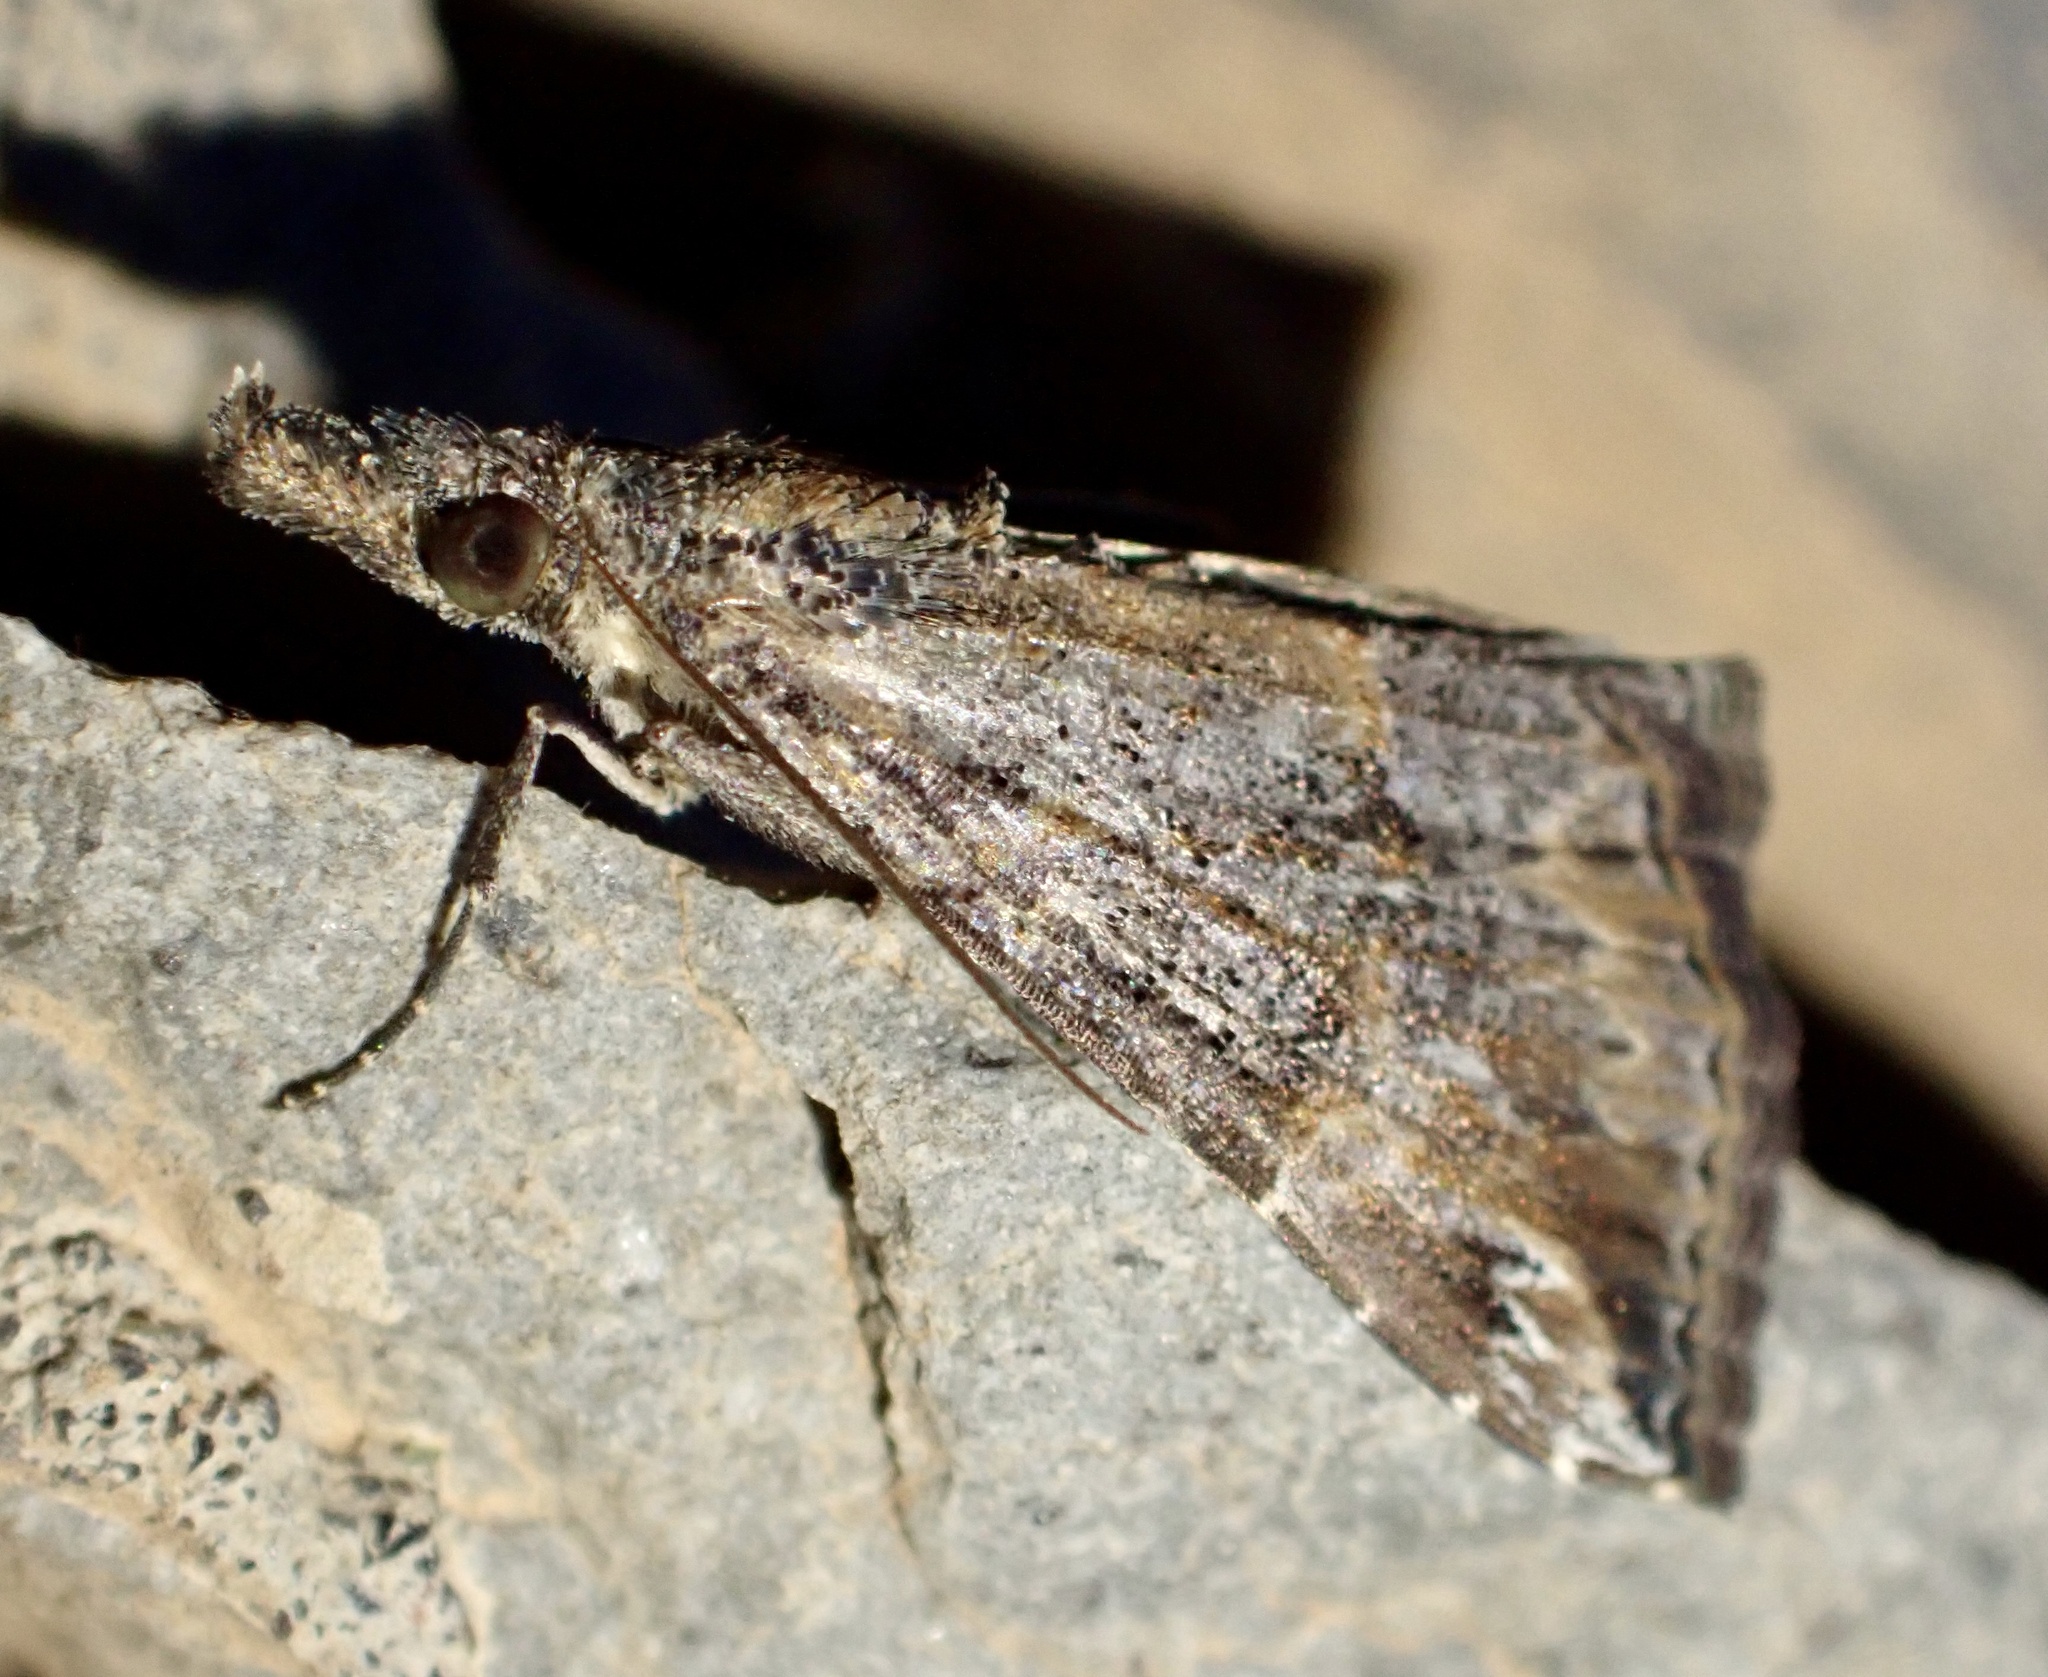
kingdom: Animalia
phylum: Arthropoda
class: Insecta
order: Lepidoptera
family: Erebidae
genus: Hypena
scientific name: Hypena commixtalis
